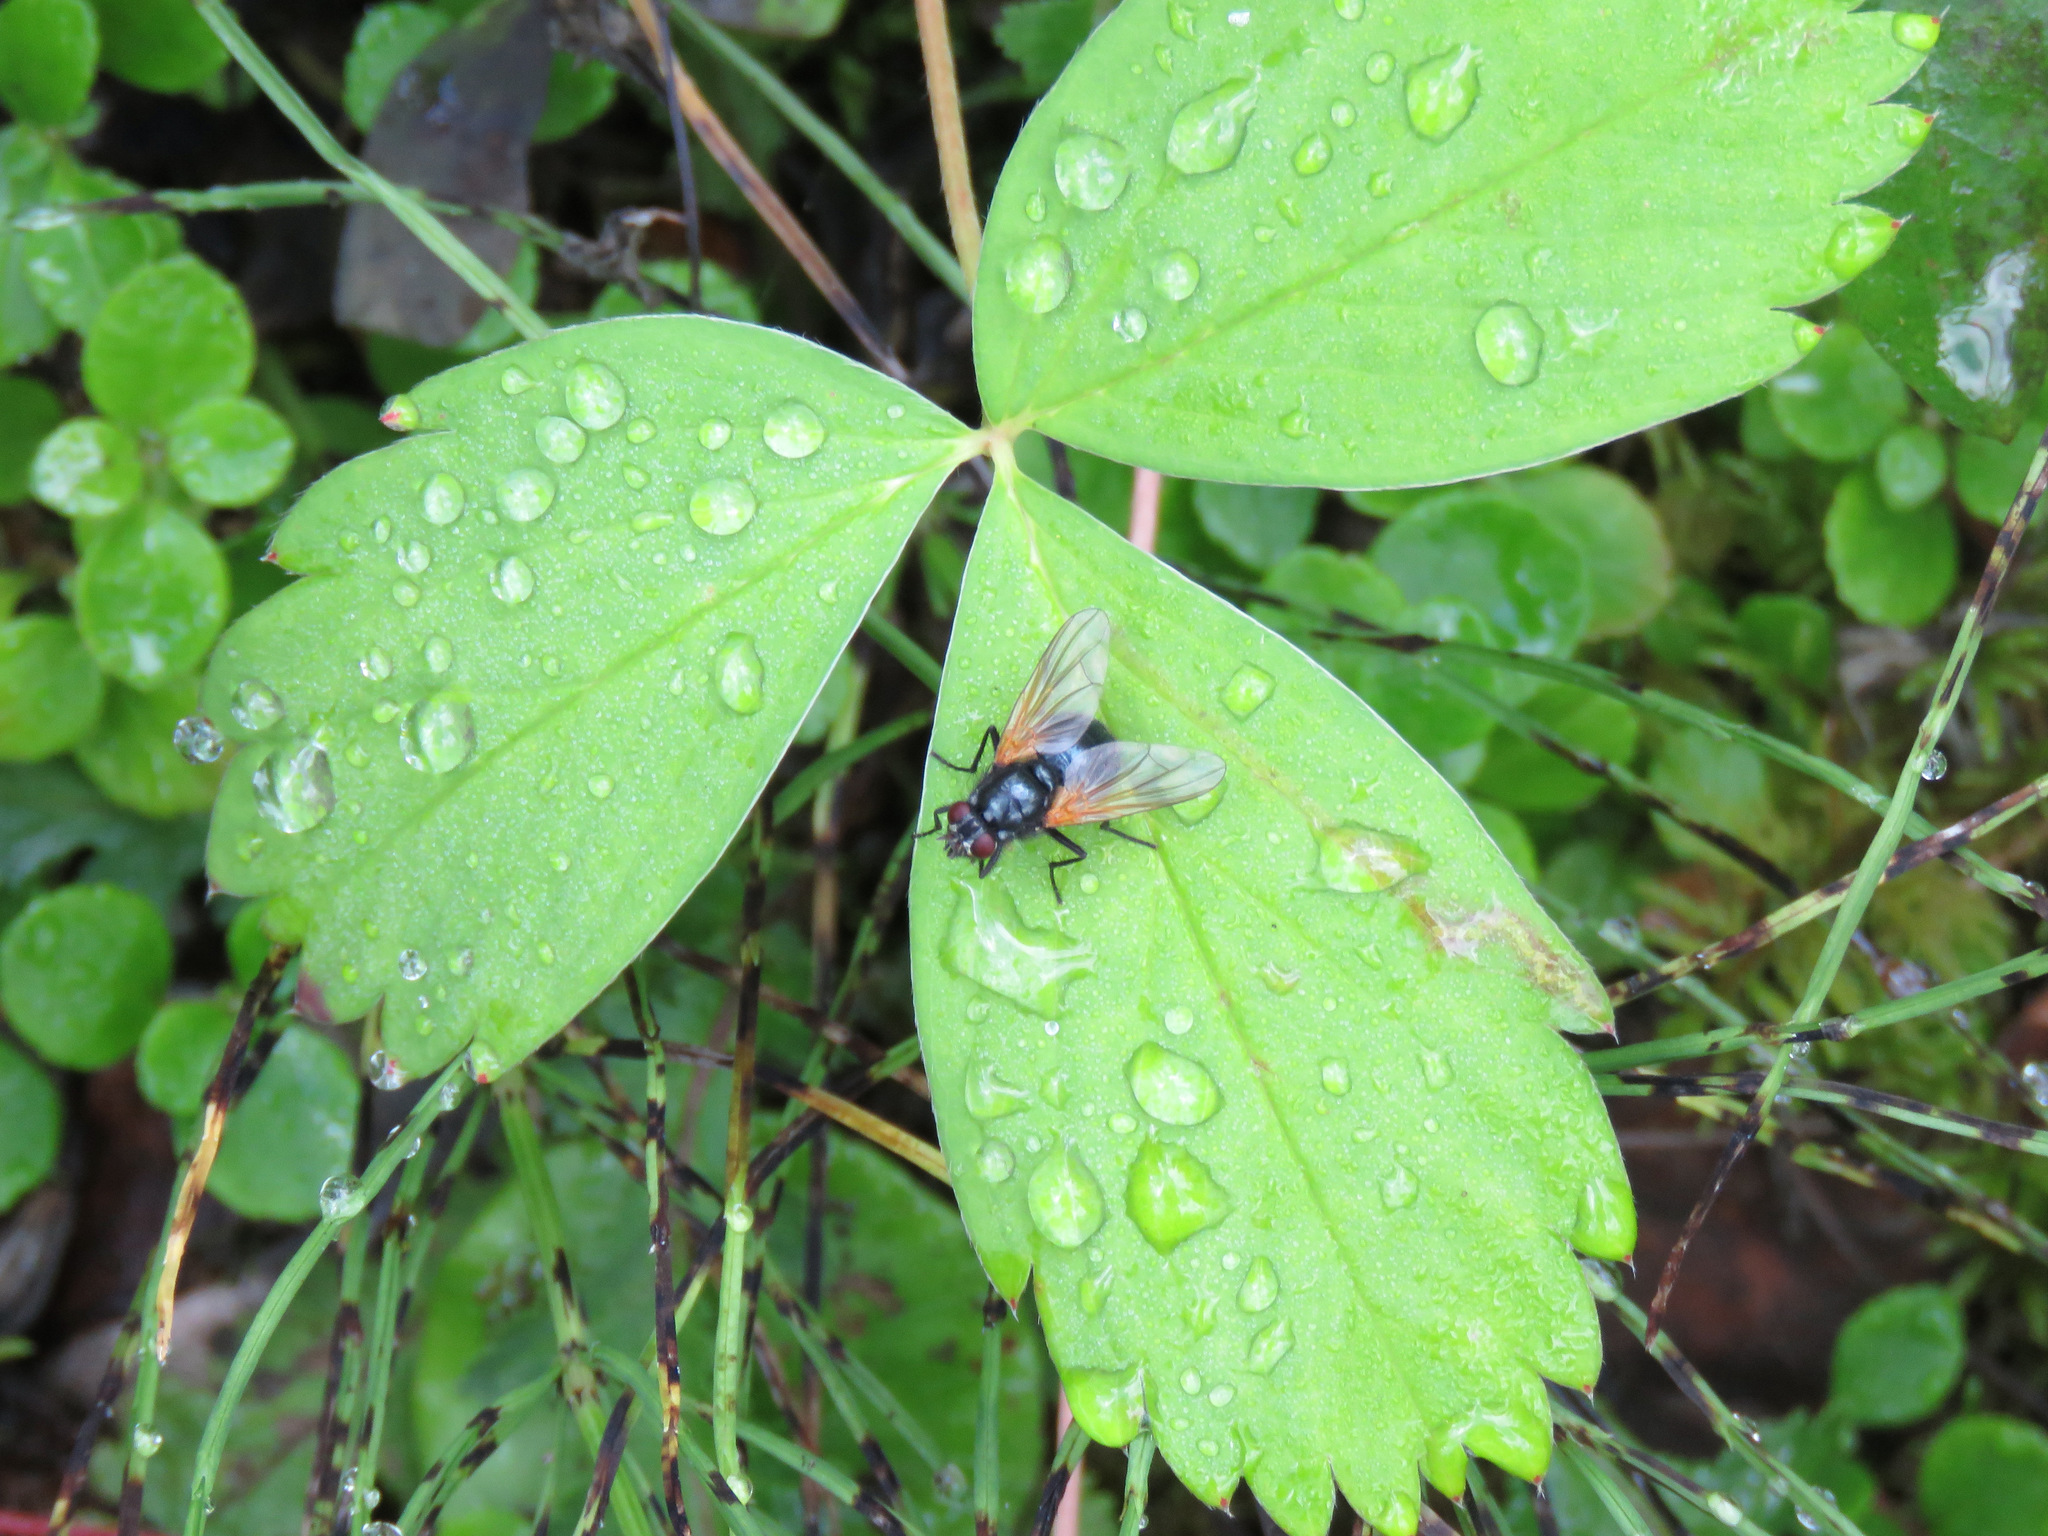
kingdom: Animalia
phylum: Arthropoda
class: Insecta
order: Diptera
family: Muscidae
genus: Mesembrina
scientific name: Mesembrina latreillii
